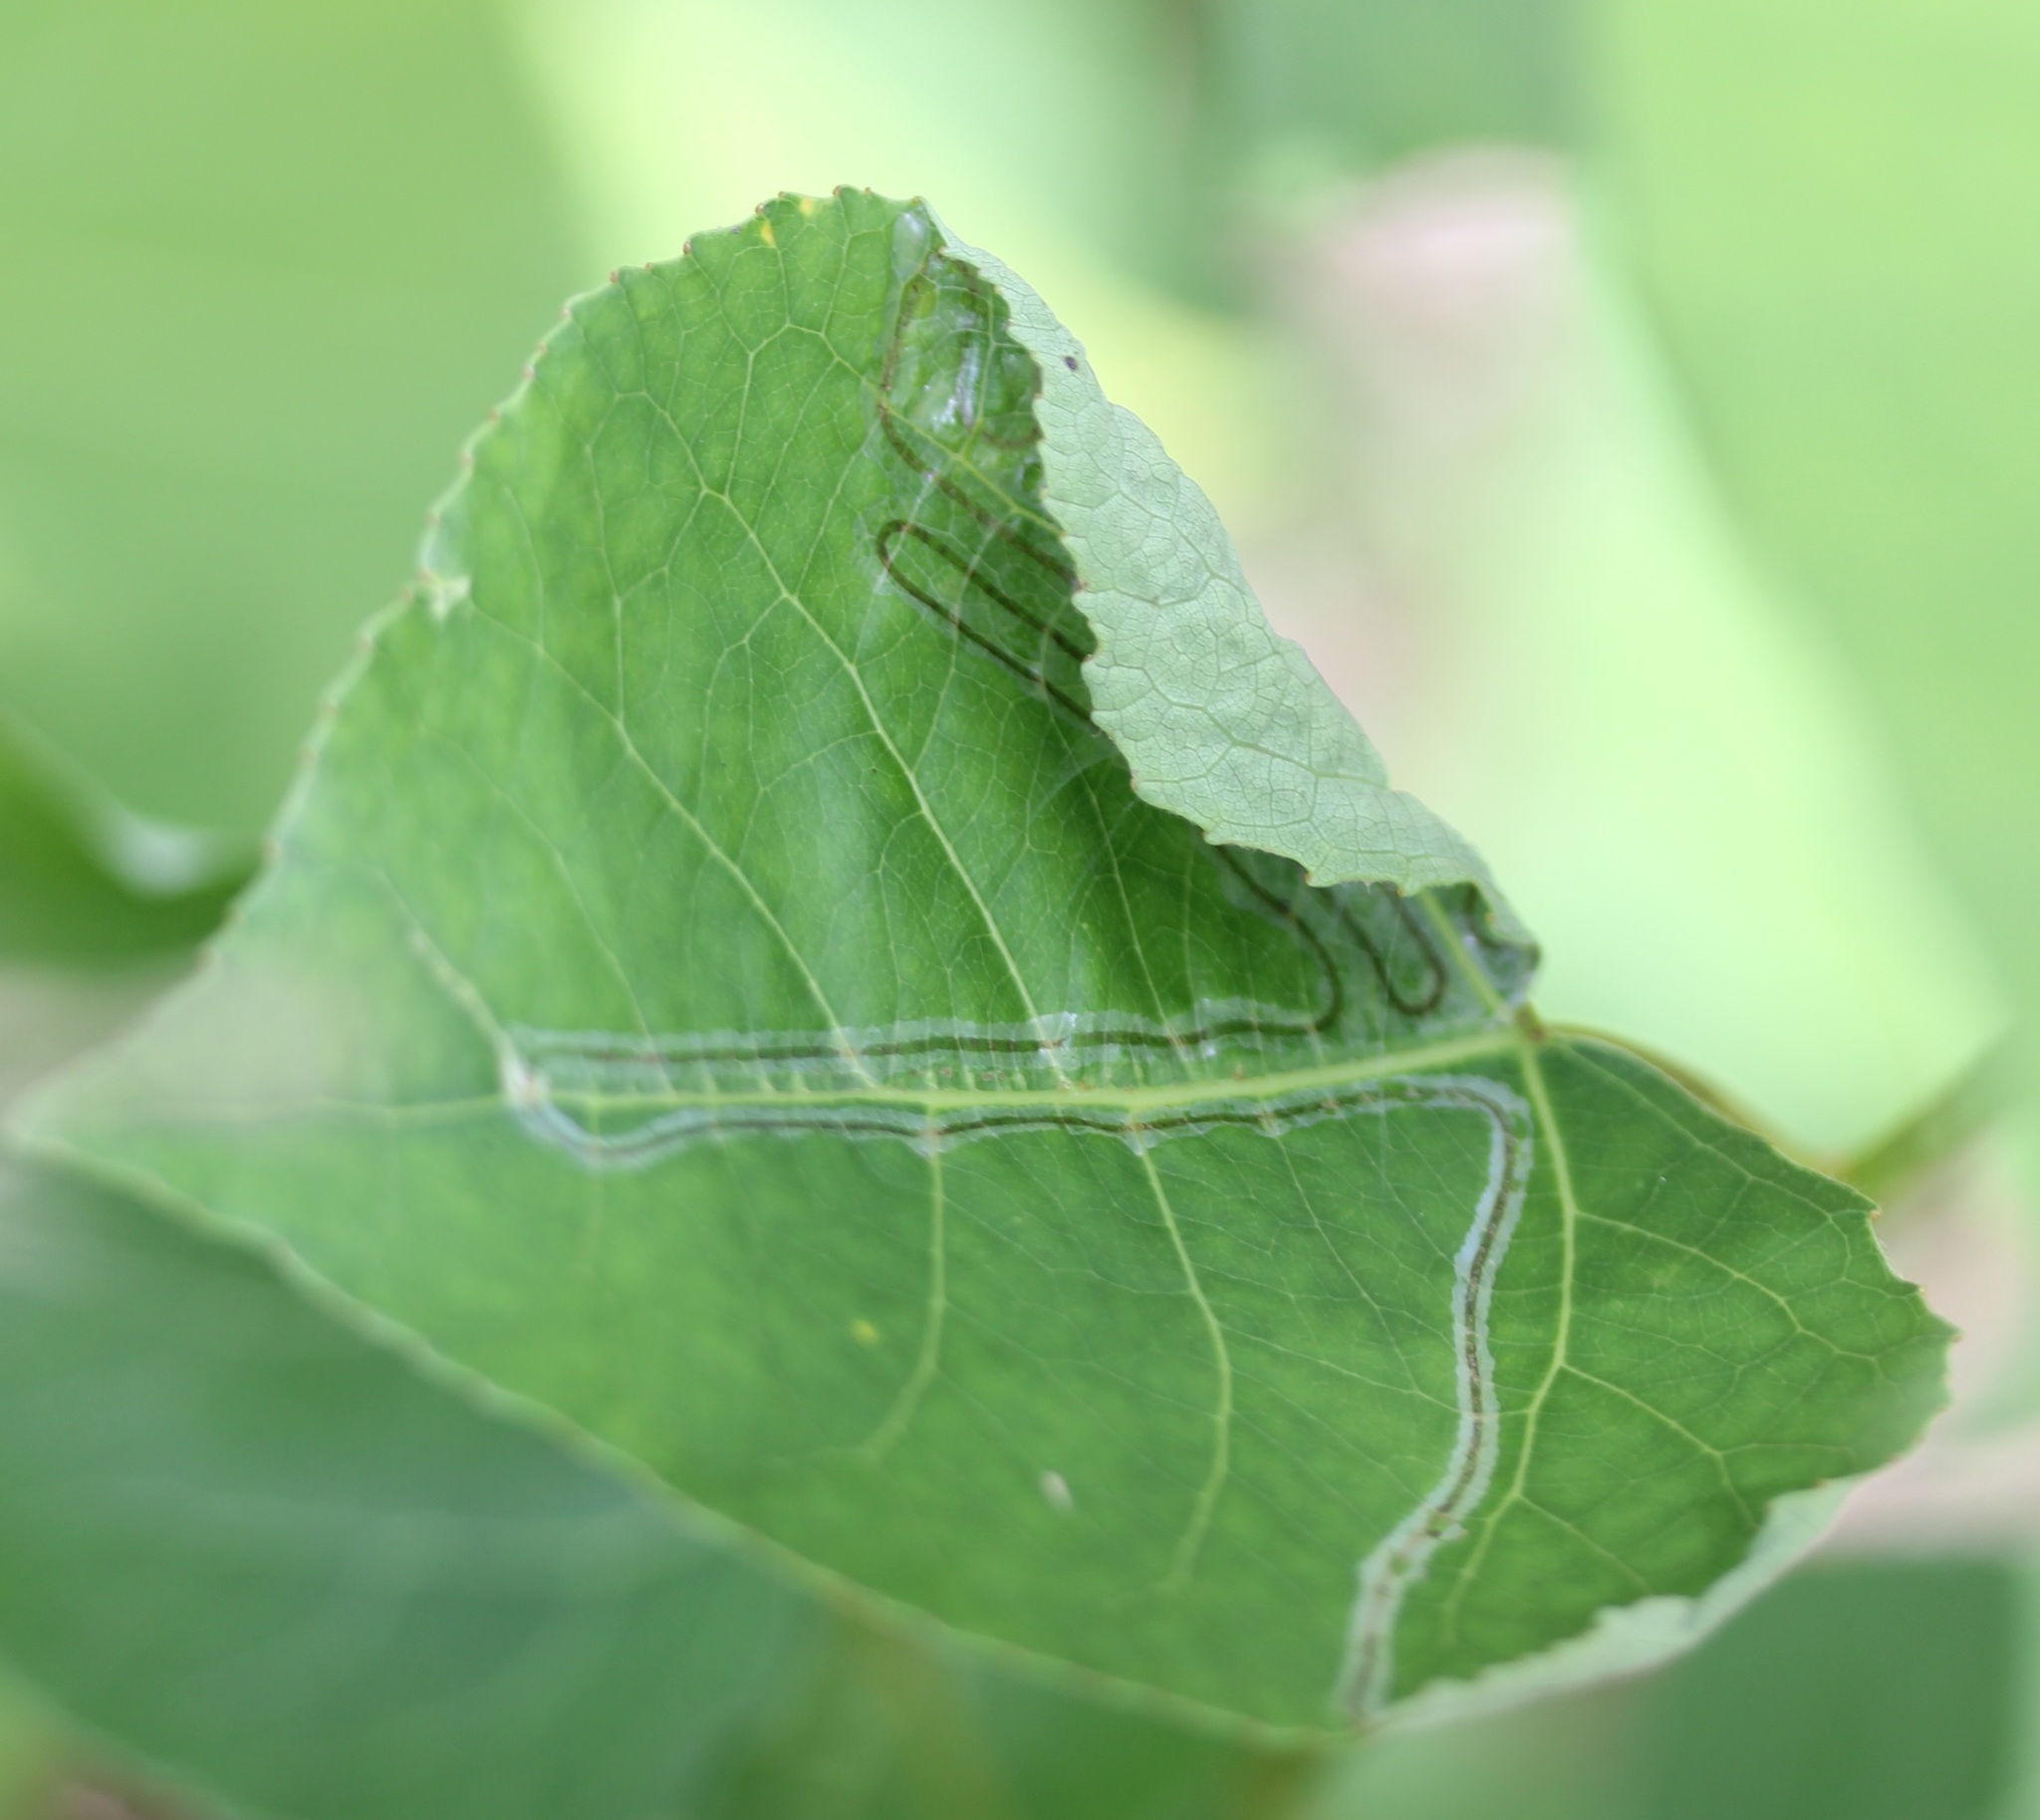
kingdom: Animalia
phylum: Arthropoda
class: Insecta
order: Lepidoptera
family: Gracillariidae
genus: Phyllocnistis
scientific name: Phyllocnistis populiella
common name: Aspen serpentine leafminer moth
